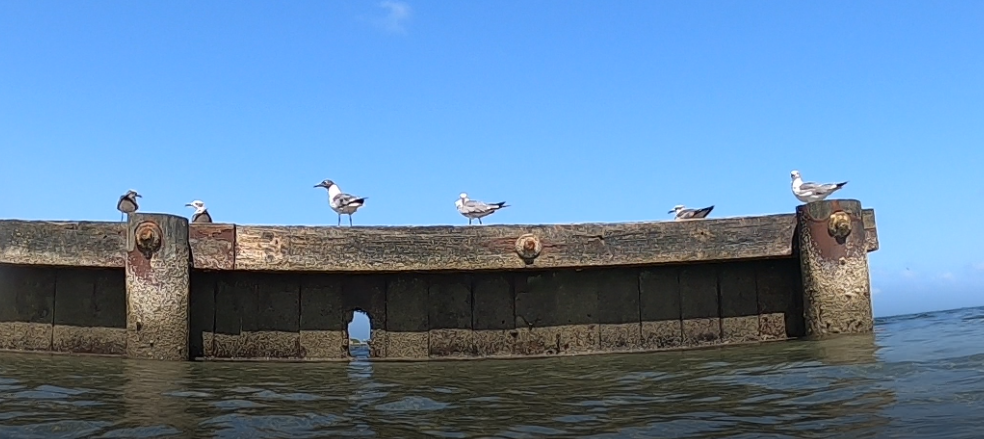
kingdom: Animalia
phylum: Chordata
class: Aves
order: Charadriiformes
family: Laridae
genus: Leucophaeus
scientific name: Leucophaeus atricilla
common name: Laughing gull
